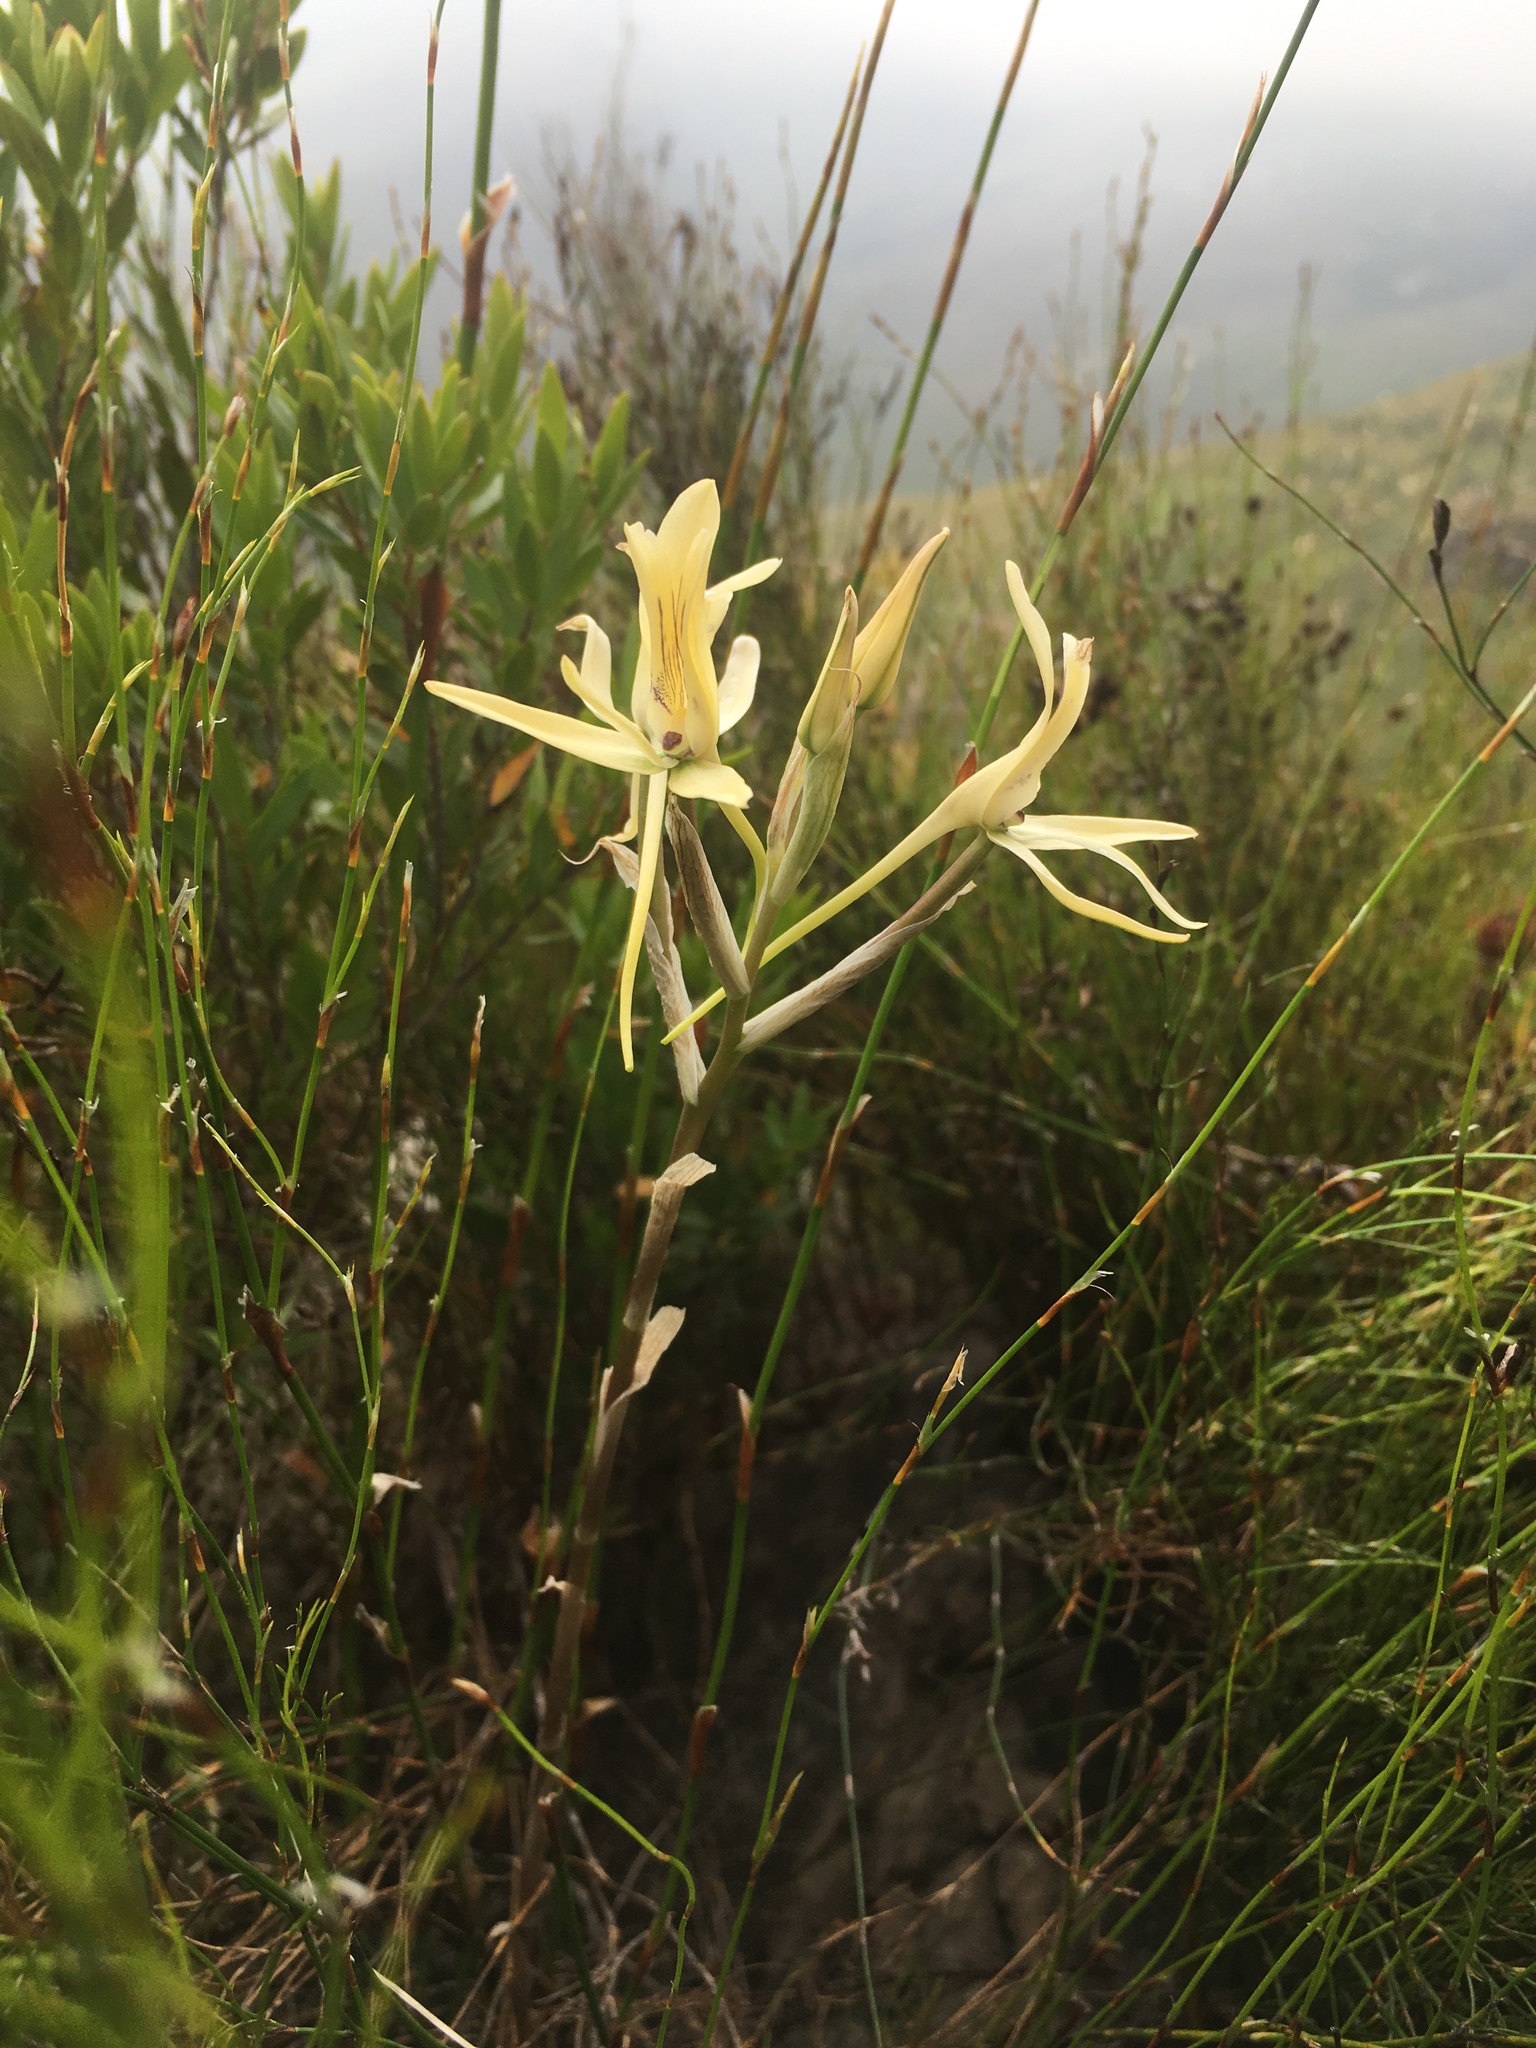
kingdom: Plantae
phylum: Tracheophyta
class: Liliopsida
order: Asparagales
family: Orchidaceae
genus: Disa
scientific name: Disa harveyana
